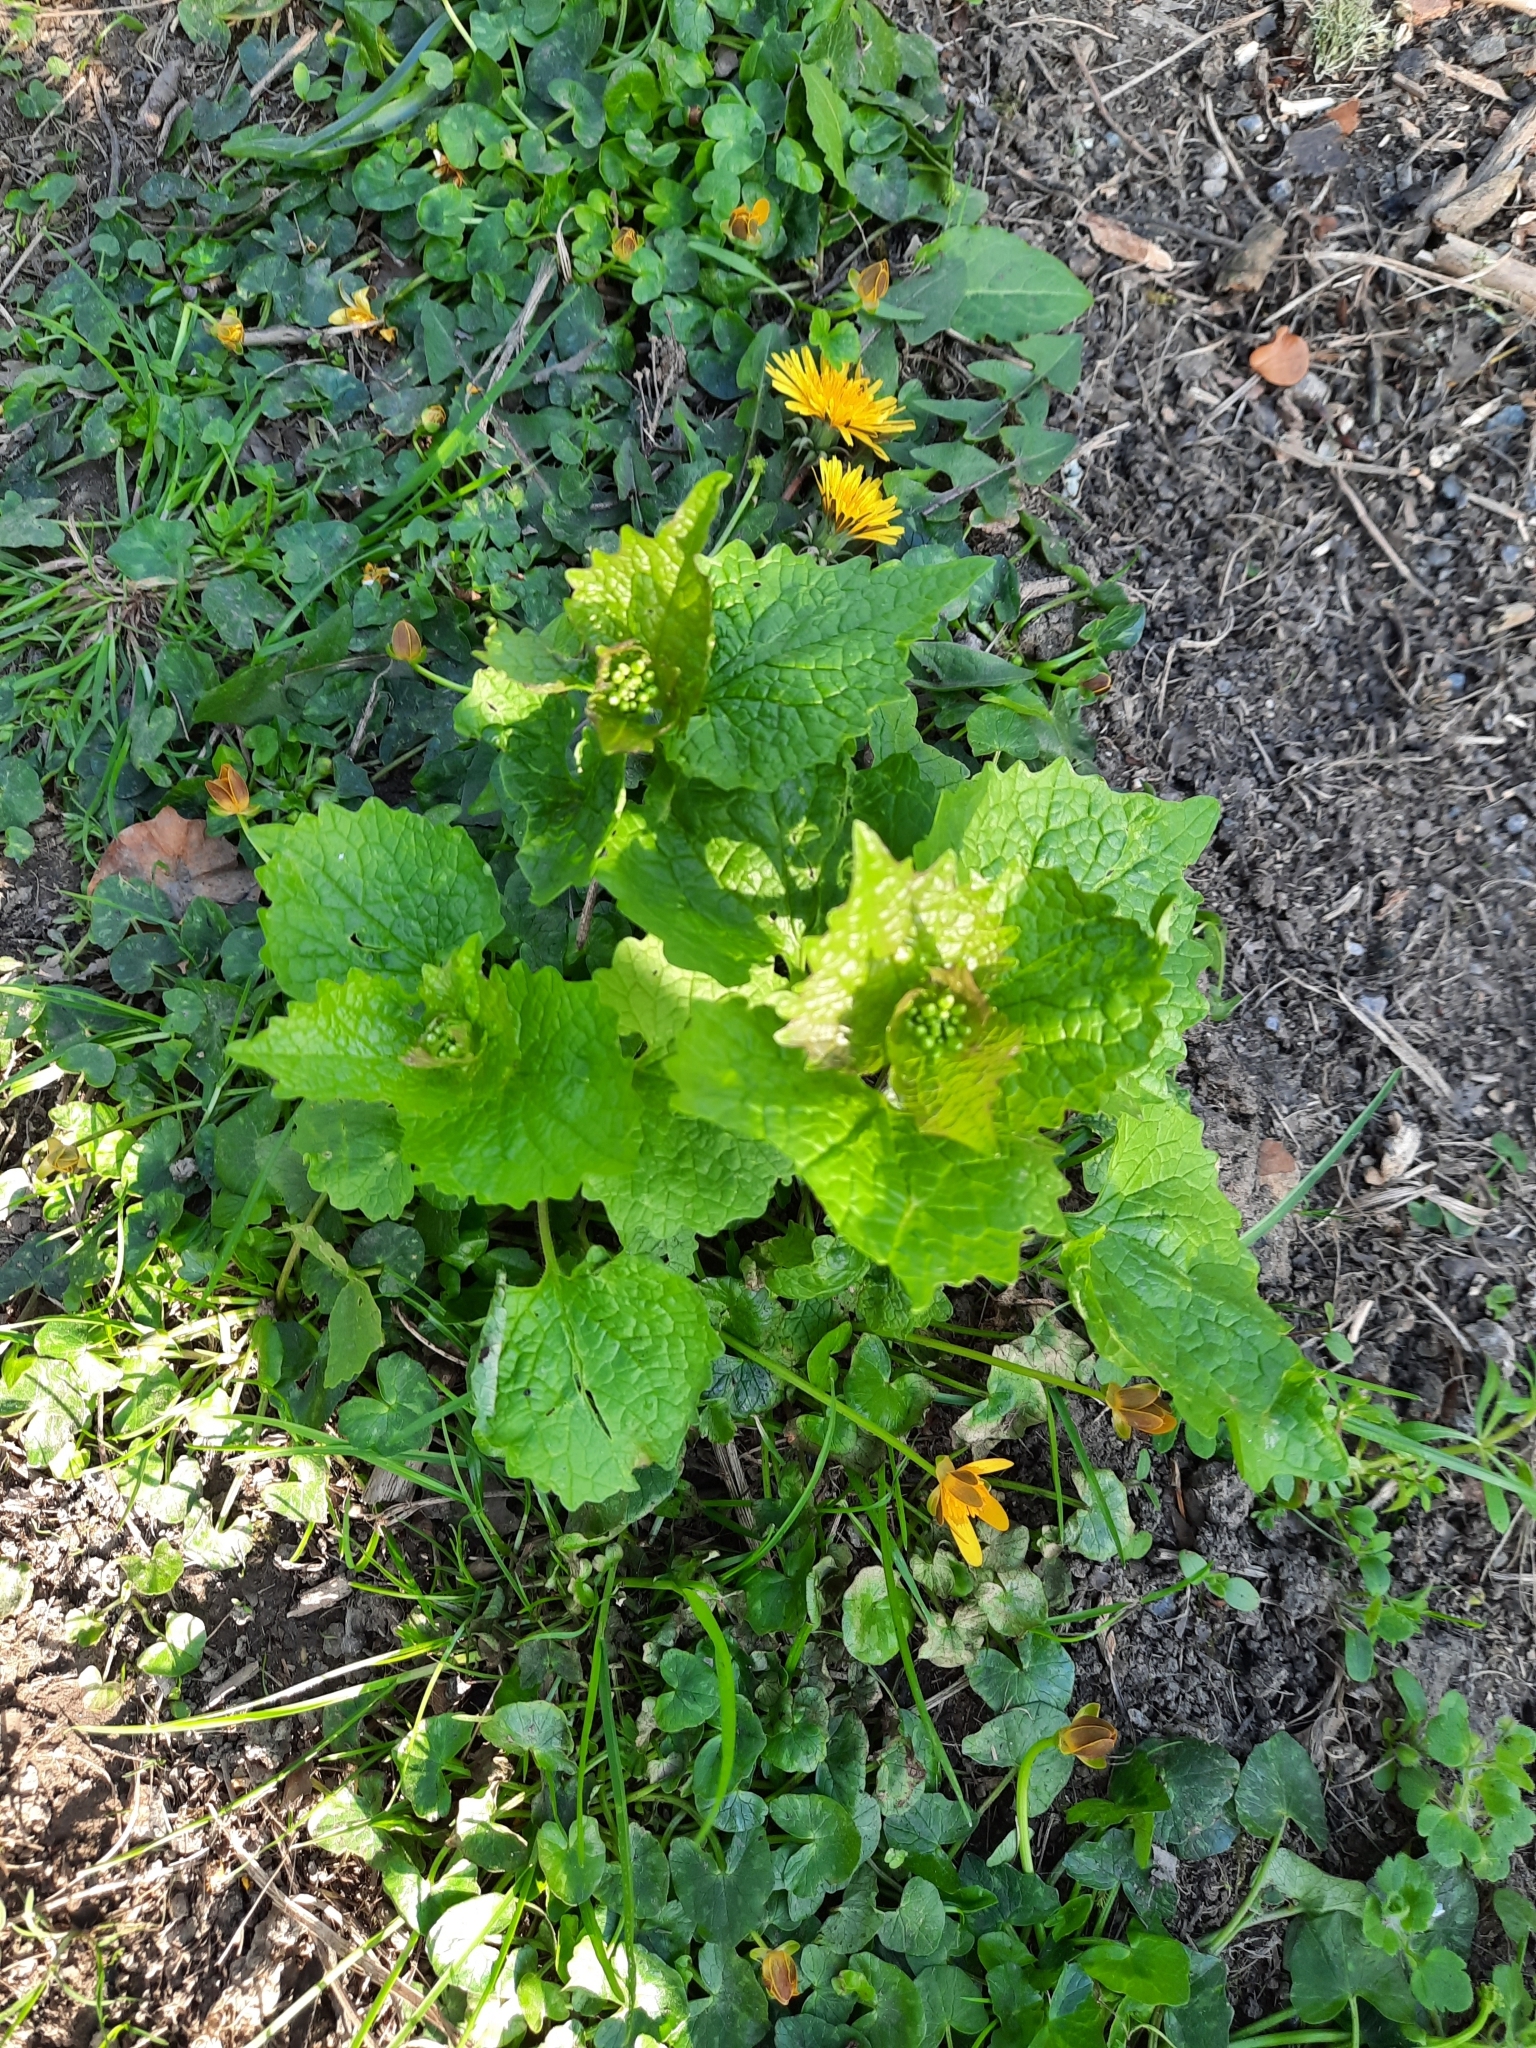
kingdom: Plantae
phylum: Tracheophyta
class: Magnoliopsida
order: Brassicales
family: Brassicaceae
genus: Alliaria
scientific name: Alliaria petiolata
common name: Garlic mustard
